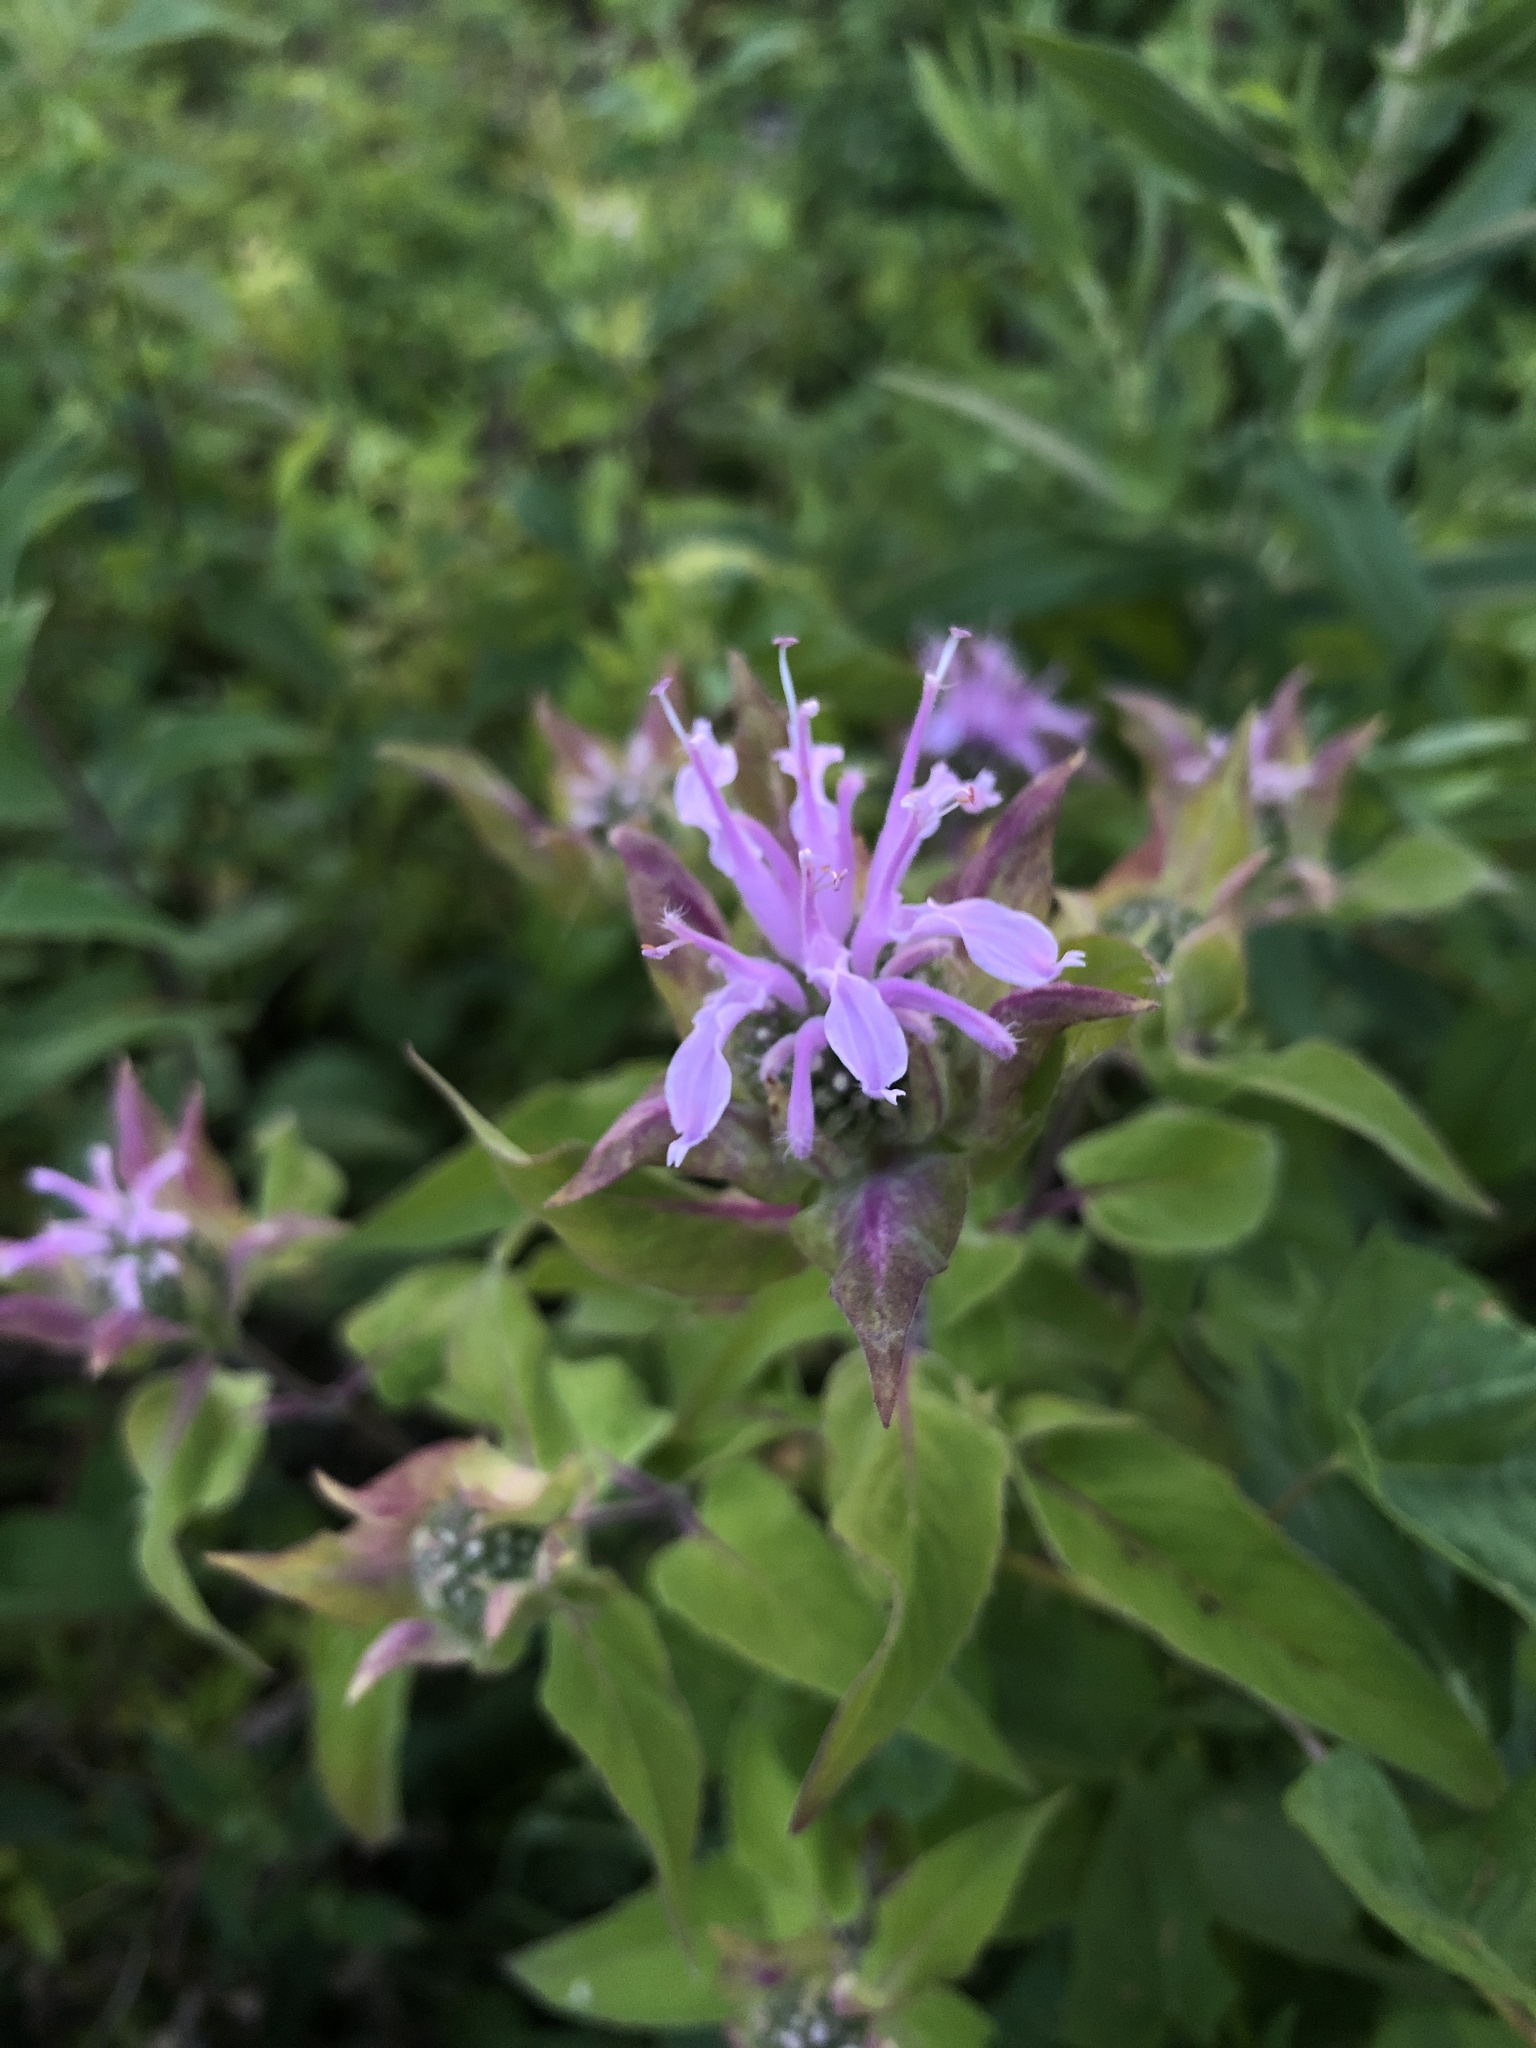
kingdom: Plantae
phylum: Tracheophyta
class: Magnoliopsida
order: Lamiales
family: Lamiaceae
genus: Monarda
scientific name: Monarda fistulosa
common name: Purple beebalm
